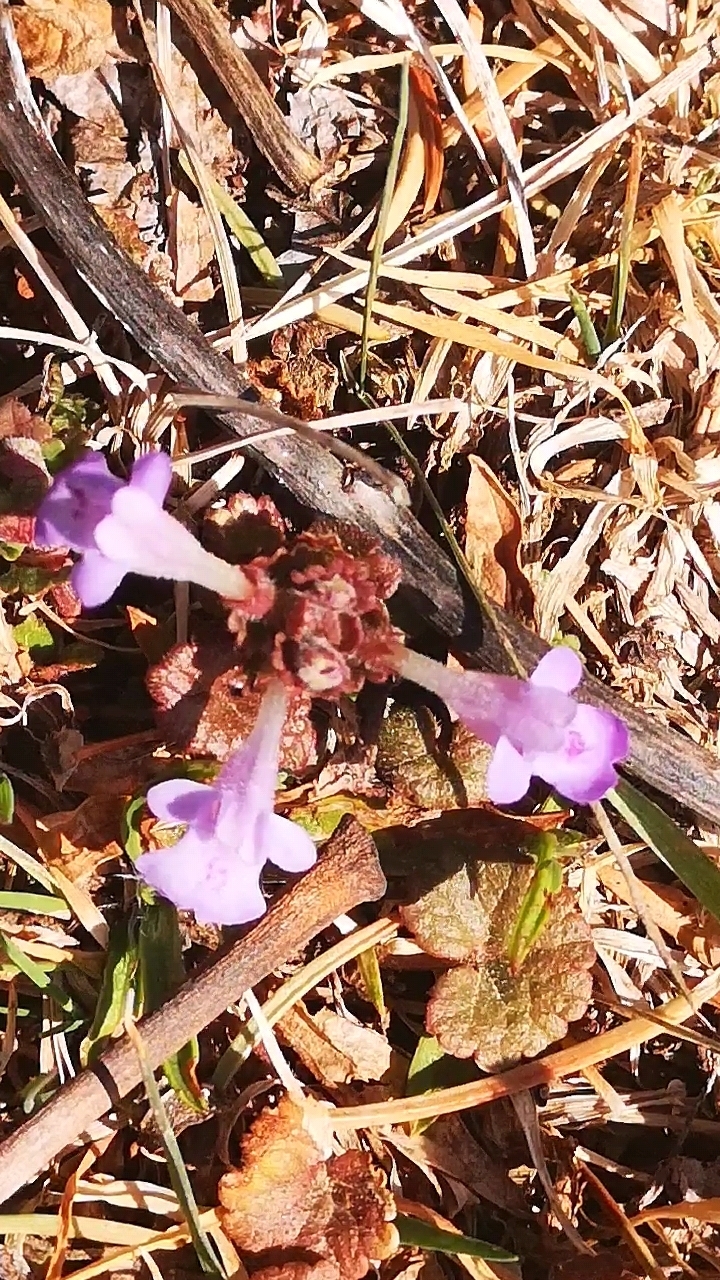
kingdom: Plantae
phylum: Tracheophyta
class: Magnoliopsida
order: Lamiales
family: Lamiaceae
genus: Glechoma
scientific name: Glechoma hederacea
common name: Ground ivy
